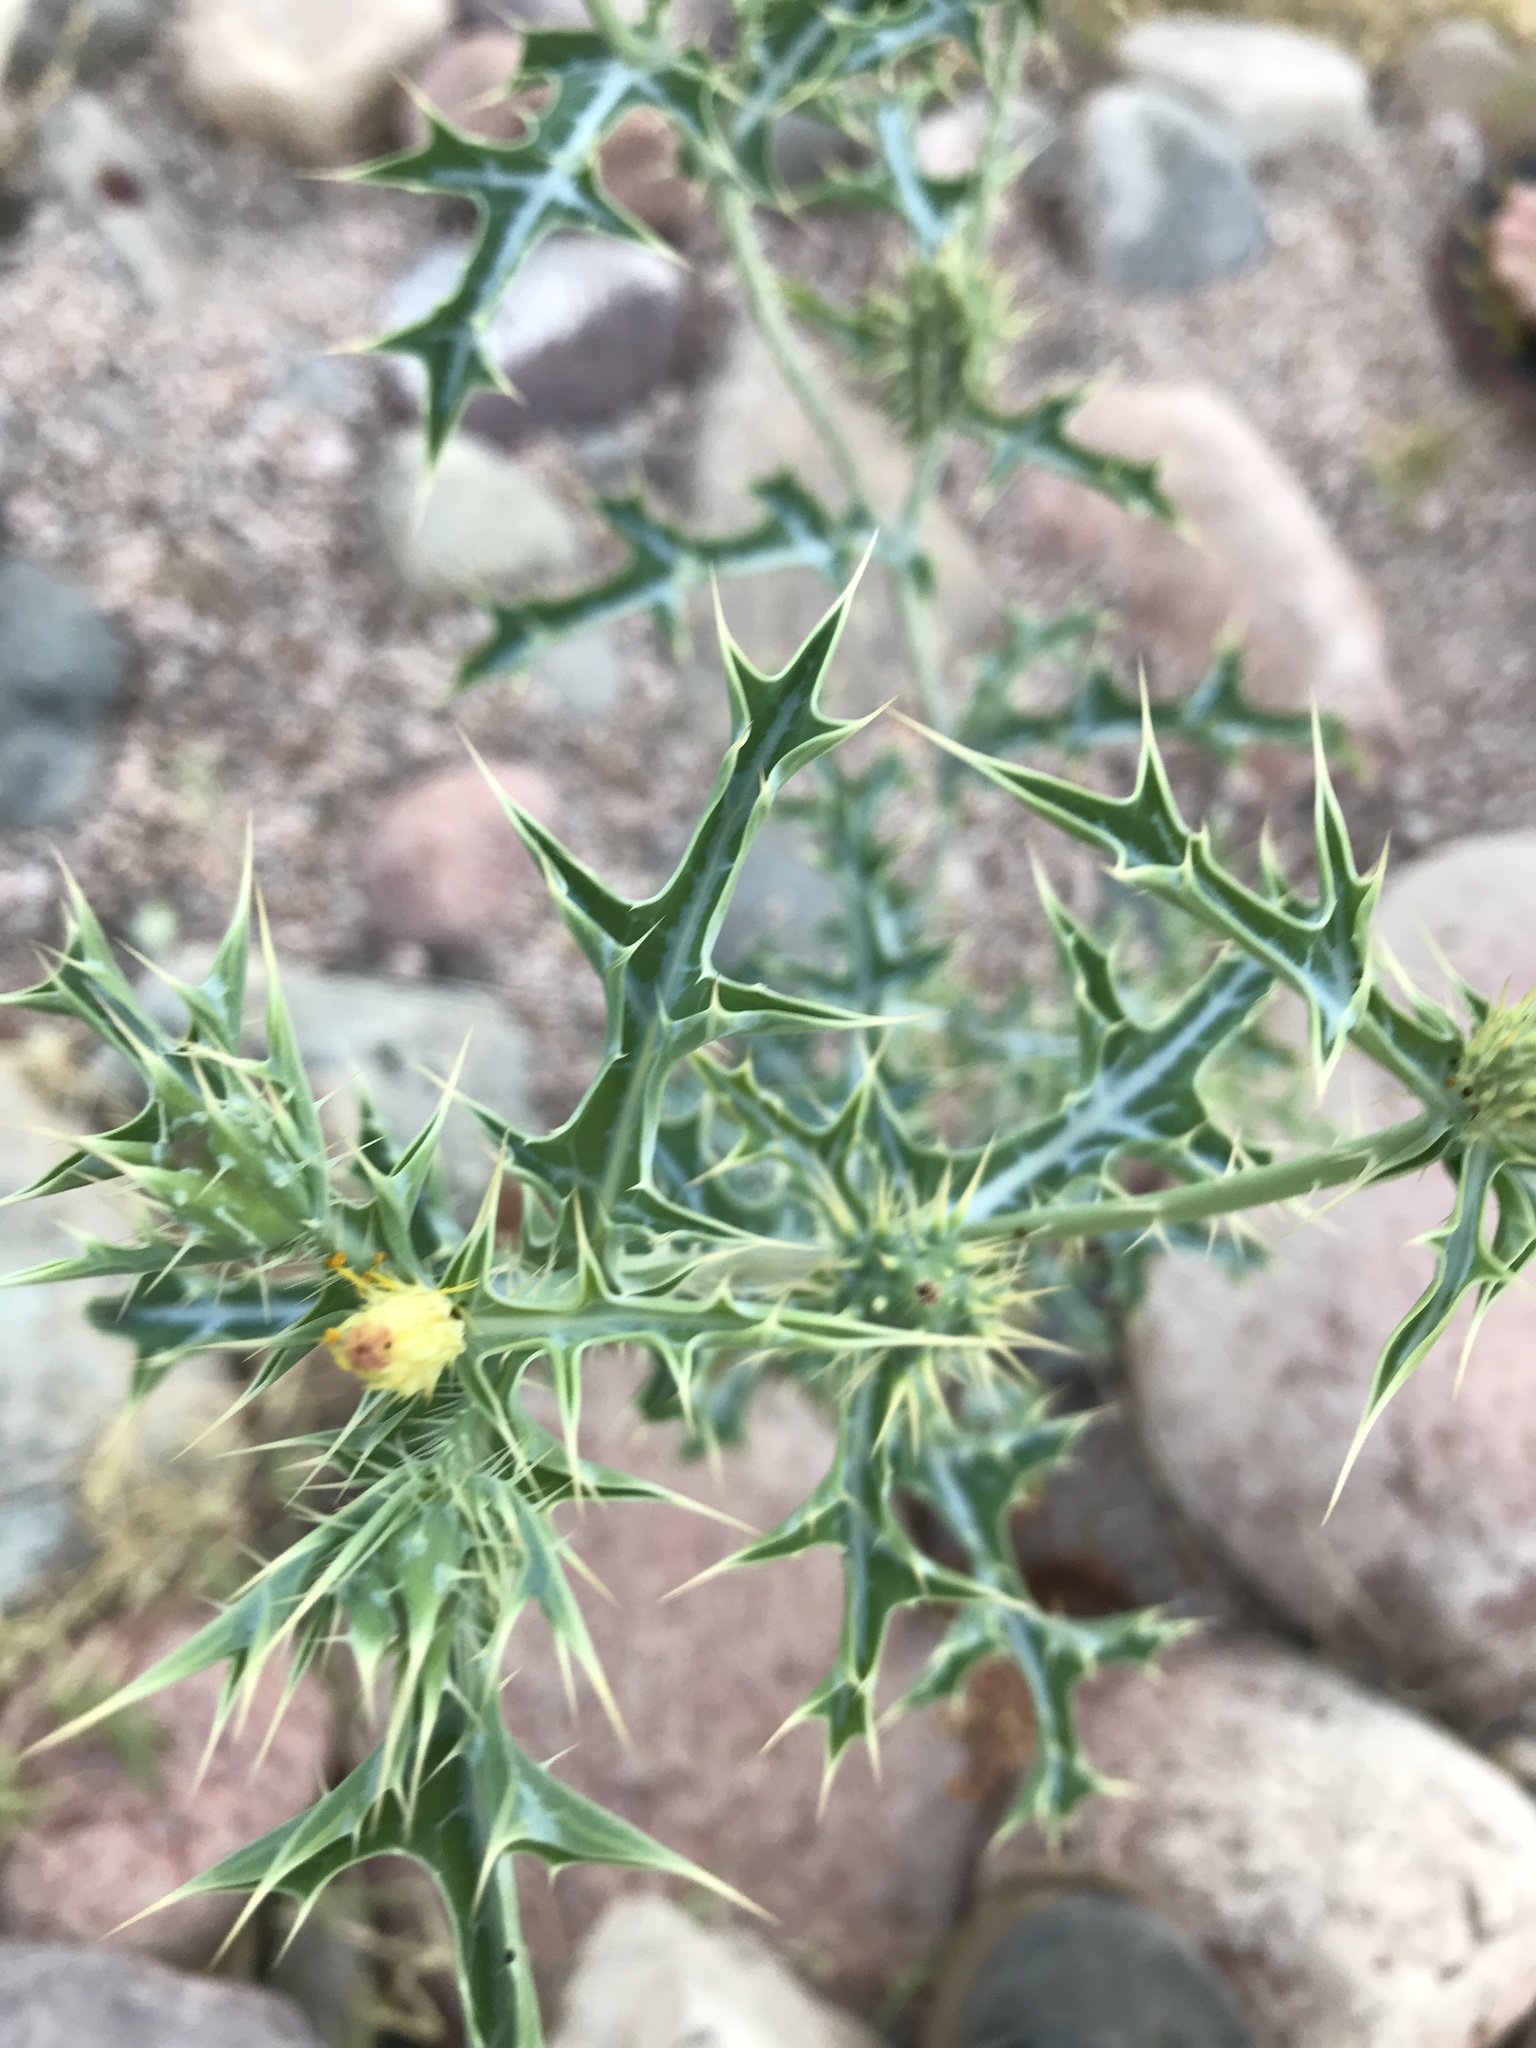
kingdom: Plantae
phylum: Tracheophyta
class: Magnoliopsida
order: Ranunculales
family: Papaveraceae
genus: Argemone
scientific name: Argemone ochroleuca
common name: White-flower mexican-poppy
